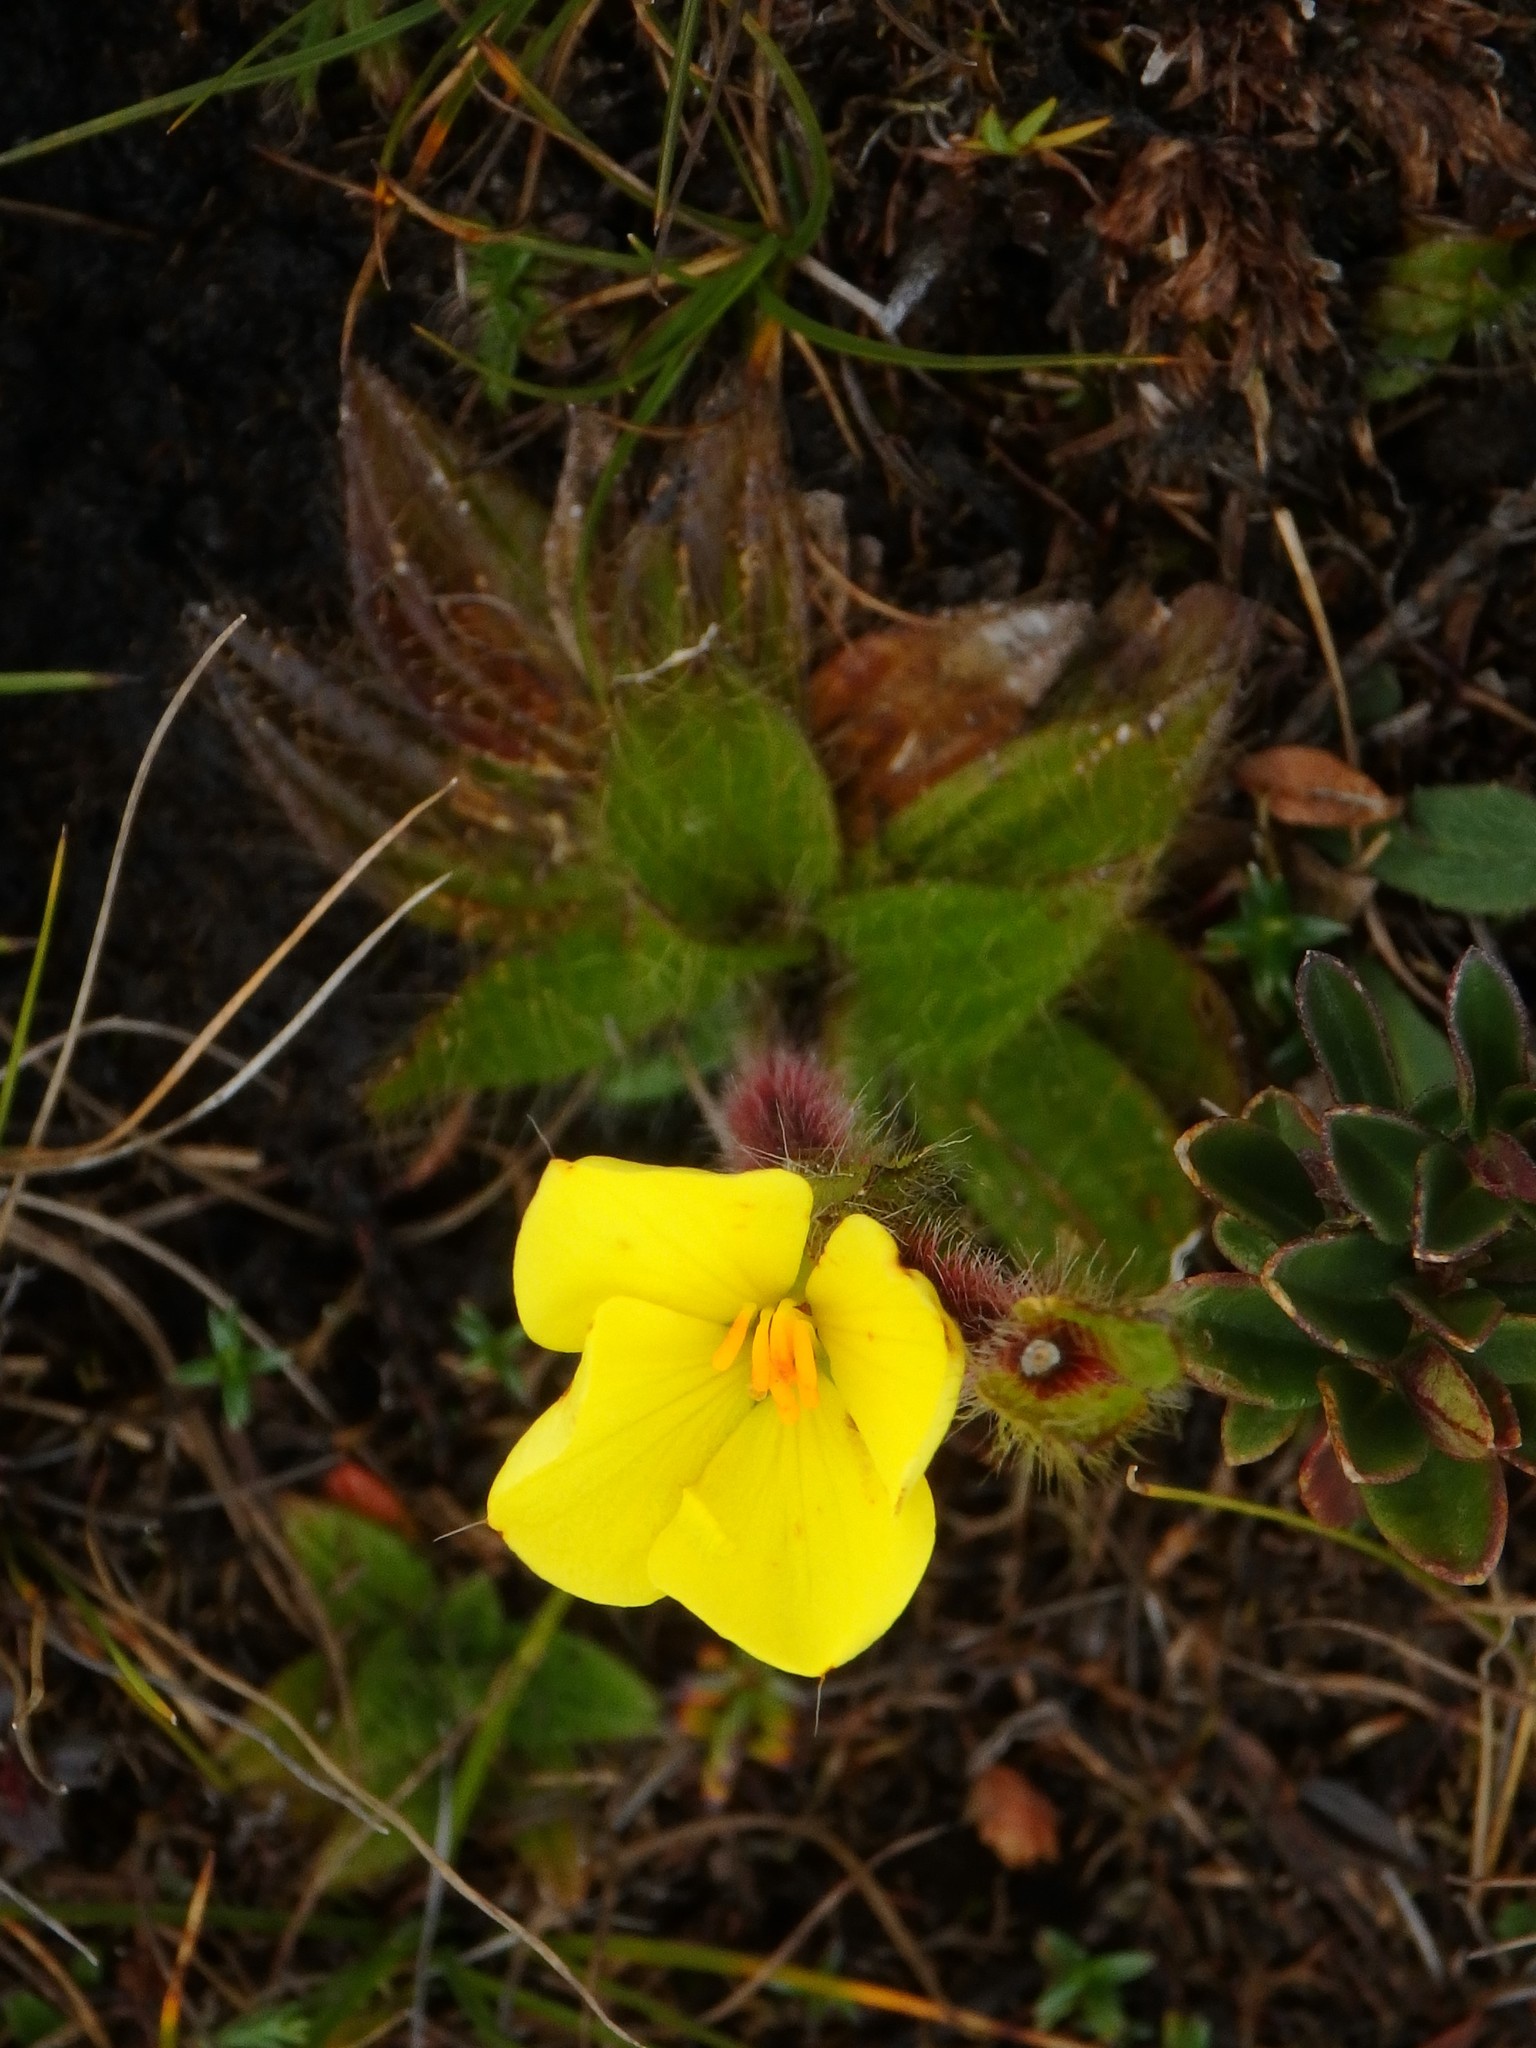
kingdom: Plantae
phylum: Tracheophyta
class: Magnoliopsida
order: Myrtales
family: Melastomataceae
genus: Castratella
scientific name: Castratella piloselloides
